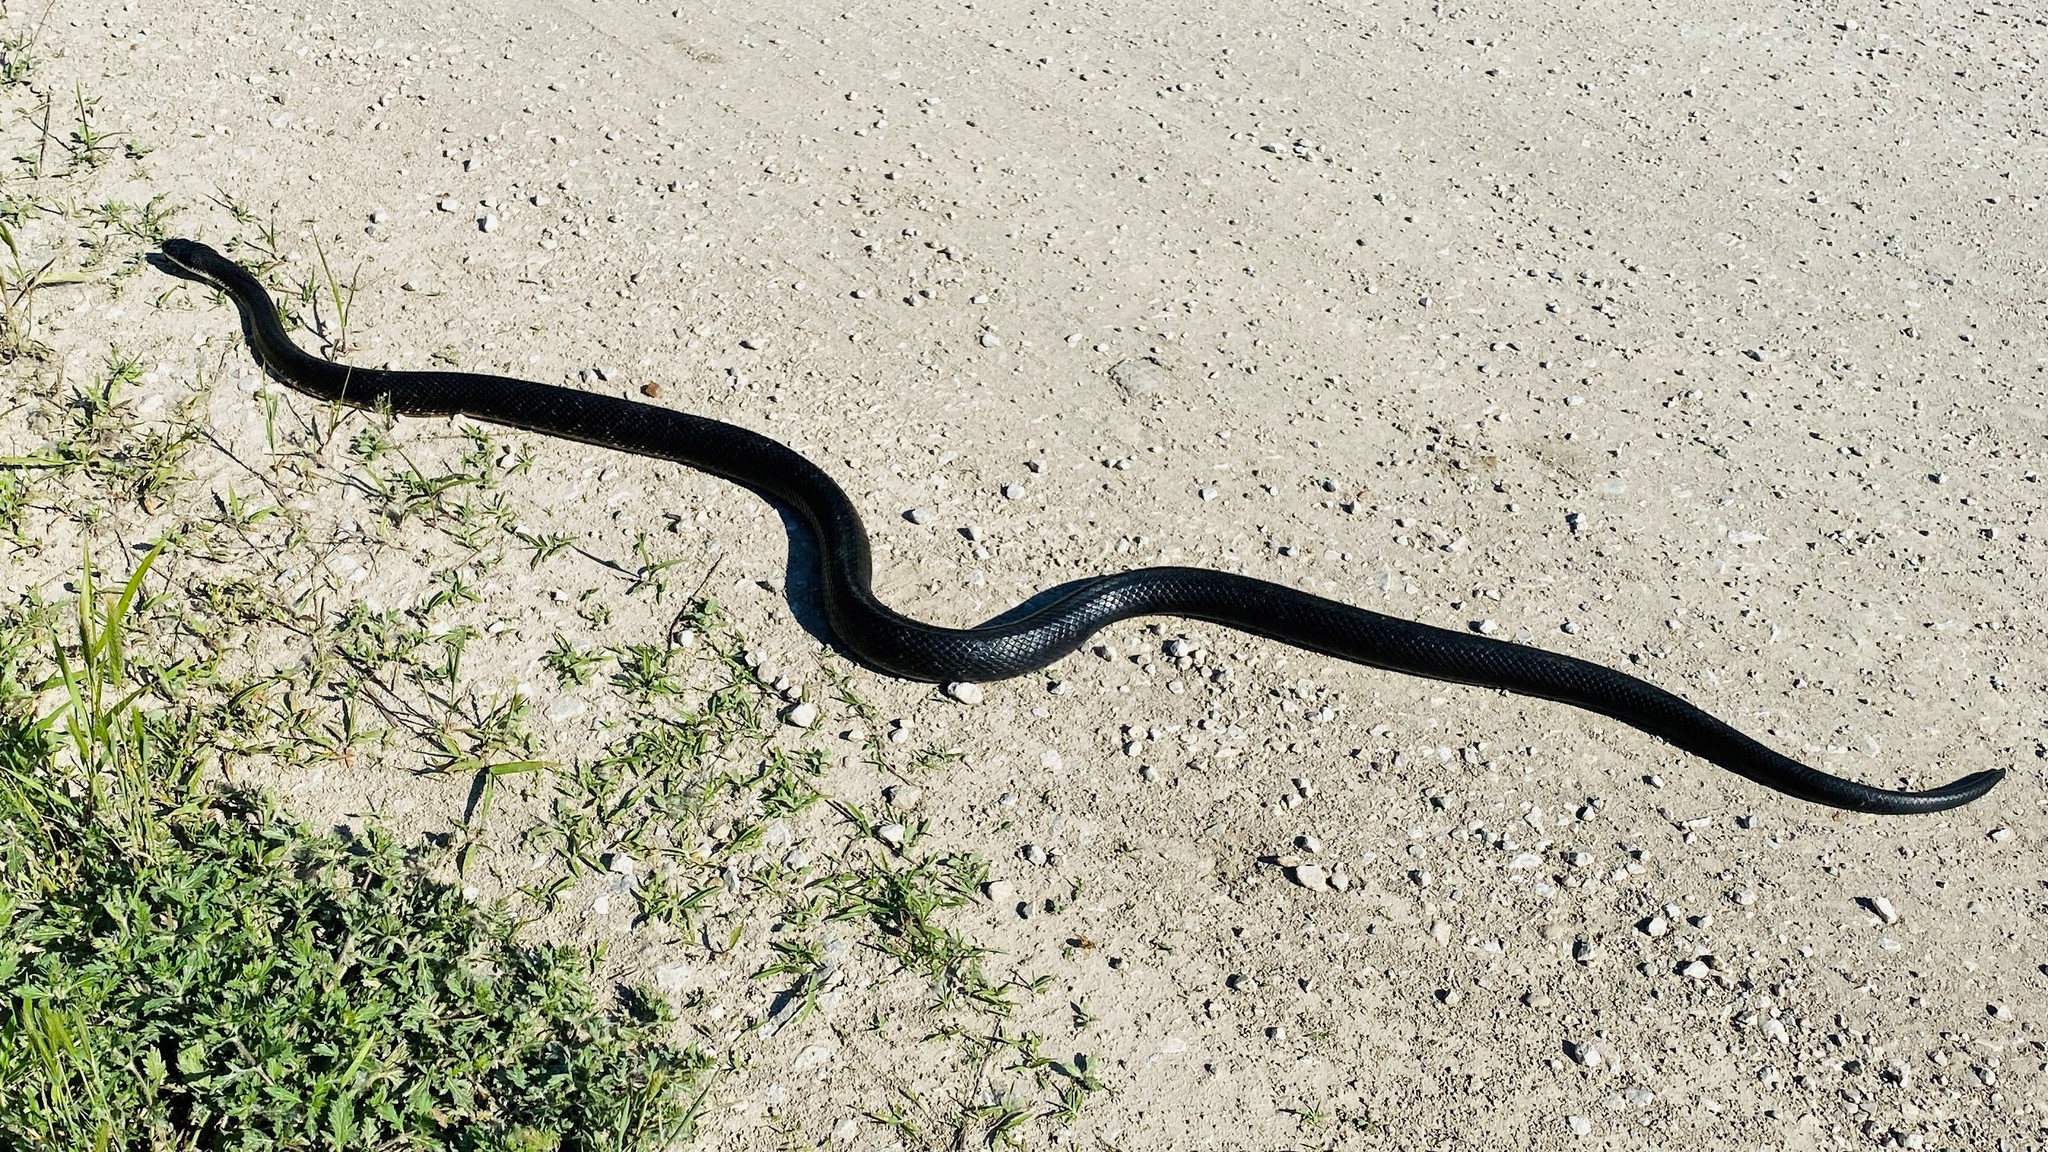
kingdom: Animalia
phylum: Chordata
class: Squamata
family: Colubridae
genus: Pantherophis
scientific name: Pantherophis obsoletus
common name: Black rat snake
